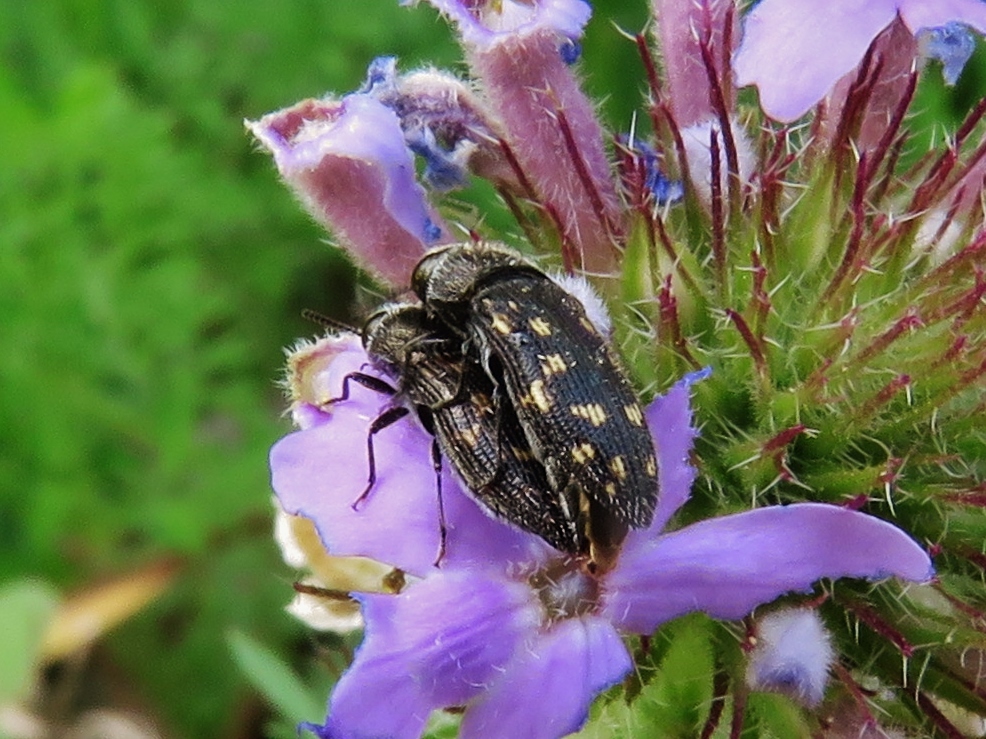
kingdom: Animalia
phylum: Arthropoda
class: Insecta
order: Coleoptera
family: Buprestidae
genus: Acmaeodera
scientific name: Acmaeodera tubulus
